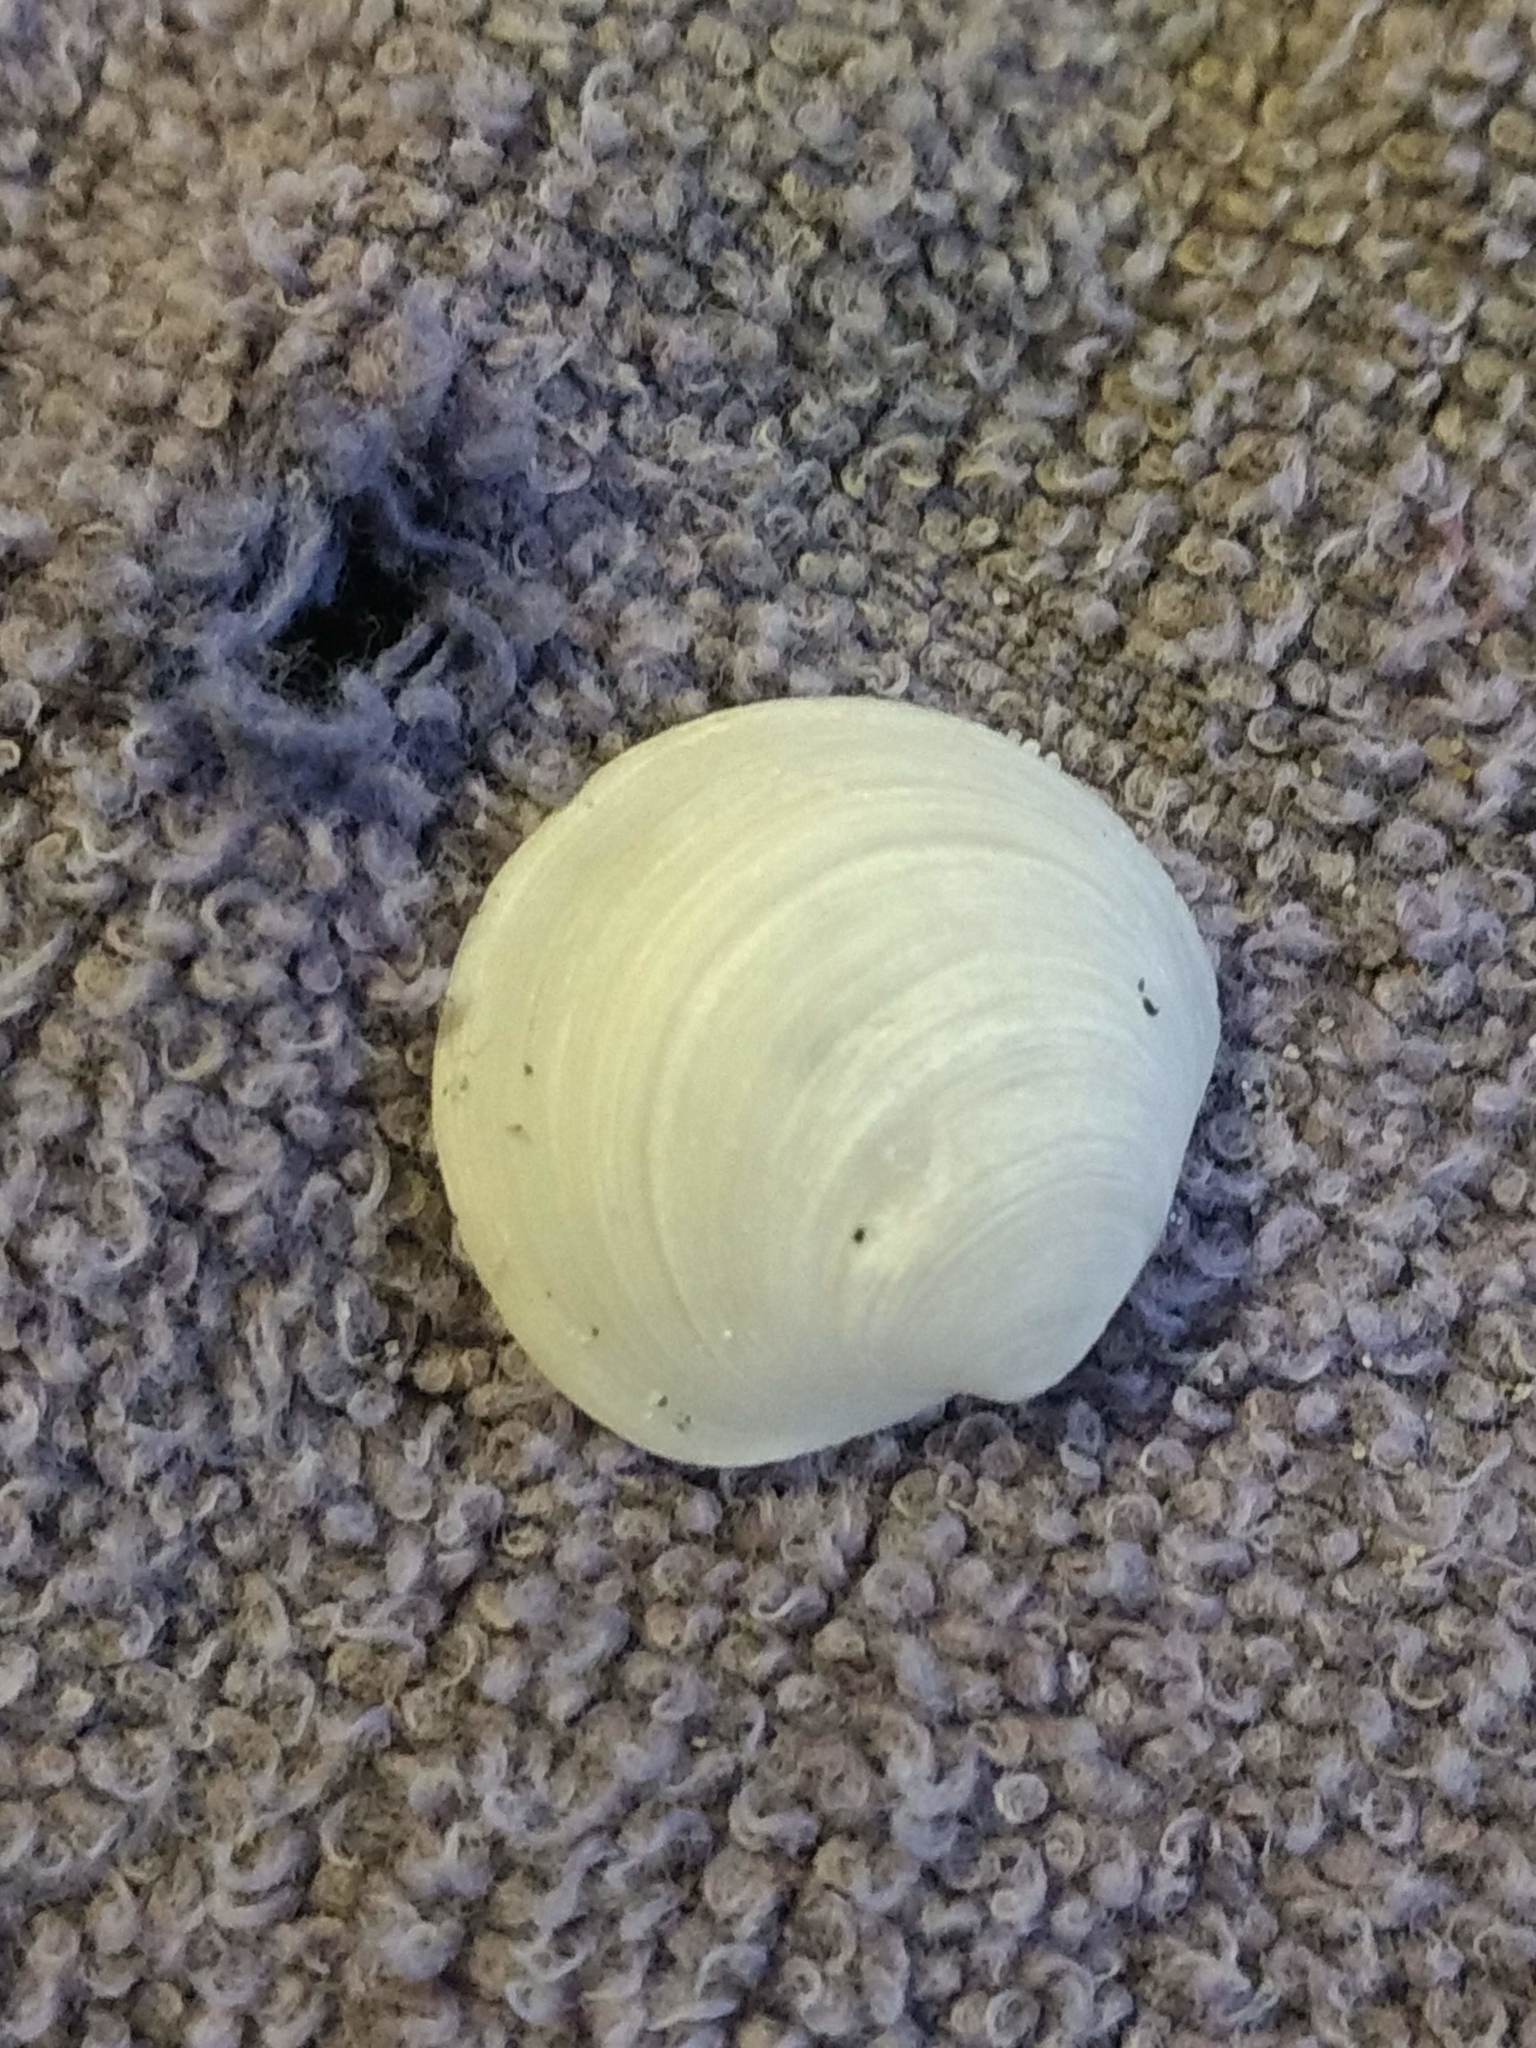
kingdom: Animalia
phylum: Mollusca
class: Bivalvia
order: Venerida
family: Ungulinidae
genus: Zemysina
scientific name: Zemysina orbella
